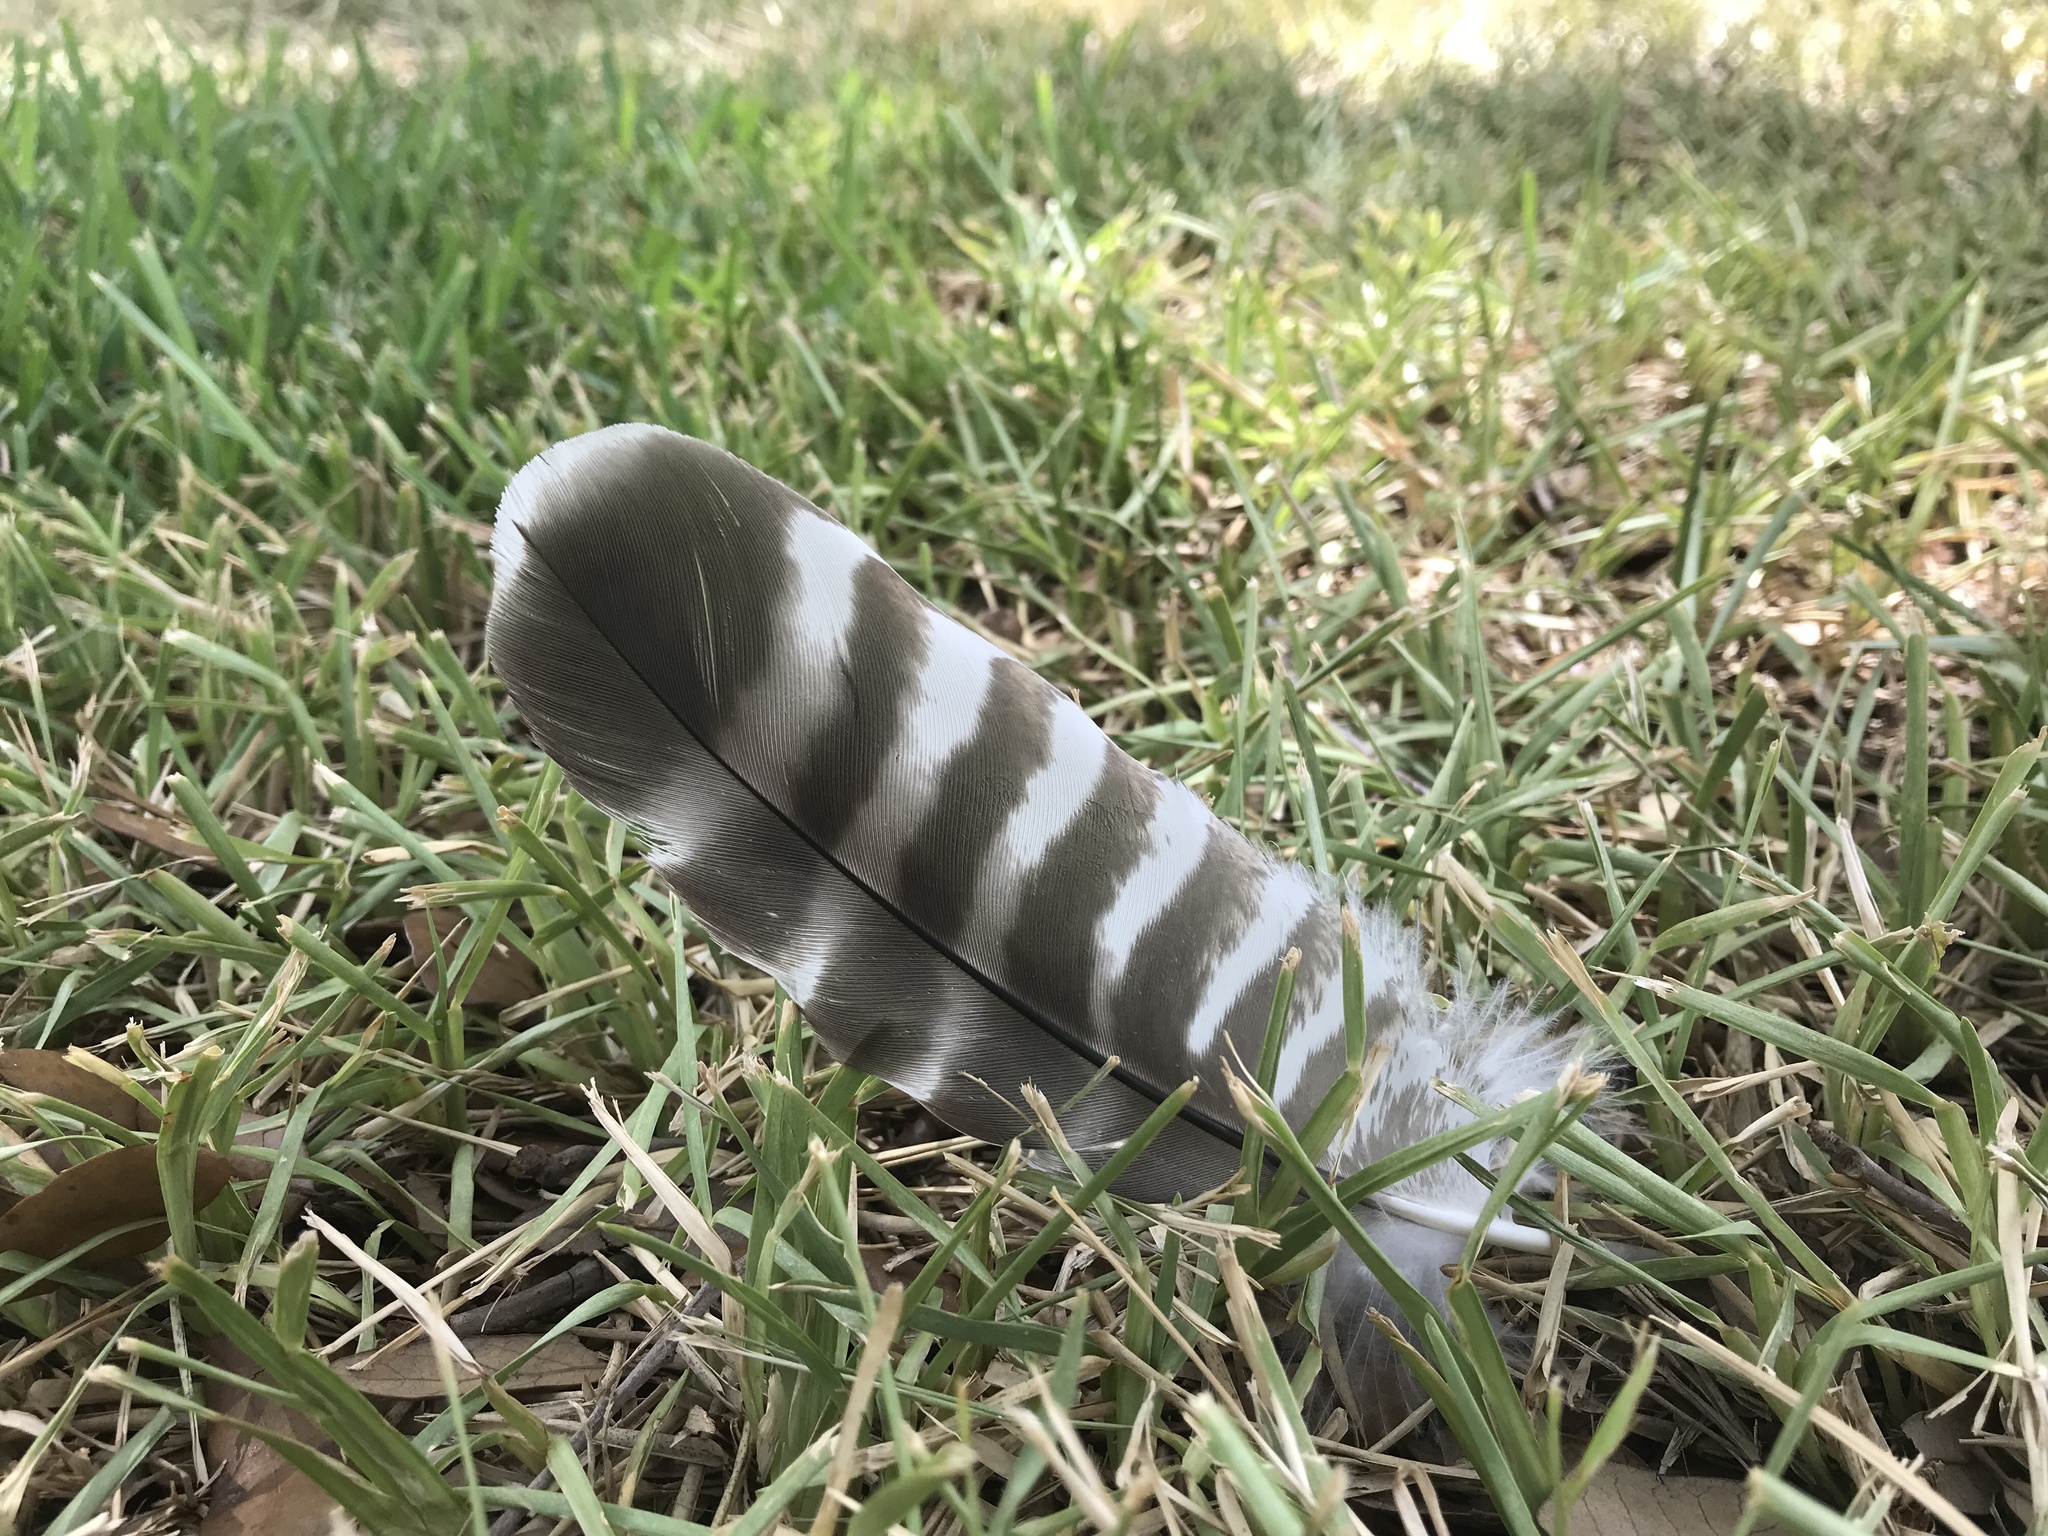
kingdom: Animalia
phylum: Chordata
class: Aves
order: Accipitriformes
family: Accipitridae
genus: Buteo
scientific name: Buteo lineatus
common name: Red-shouldered hawk
